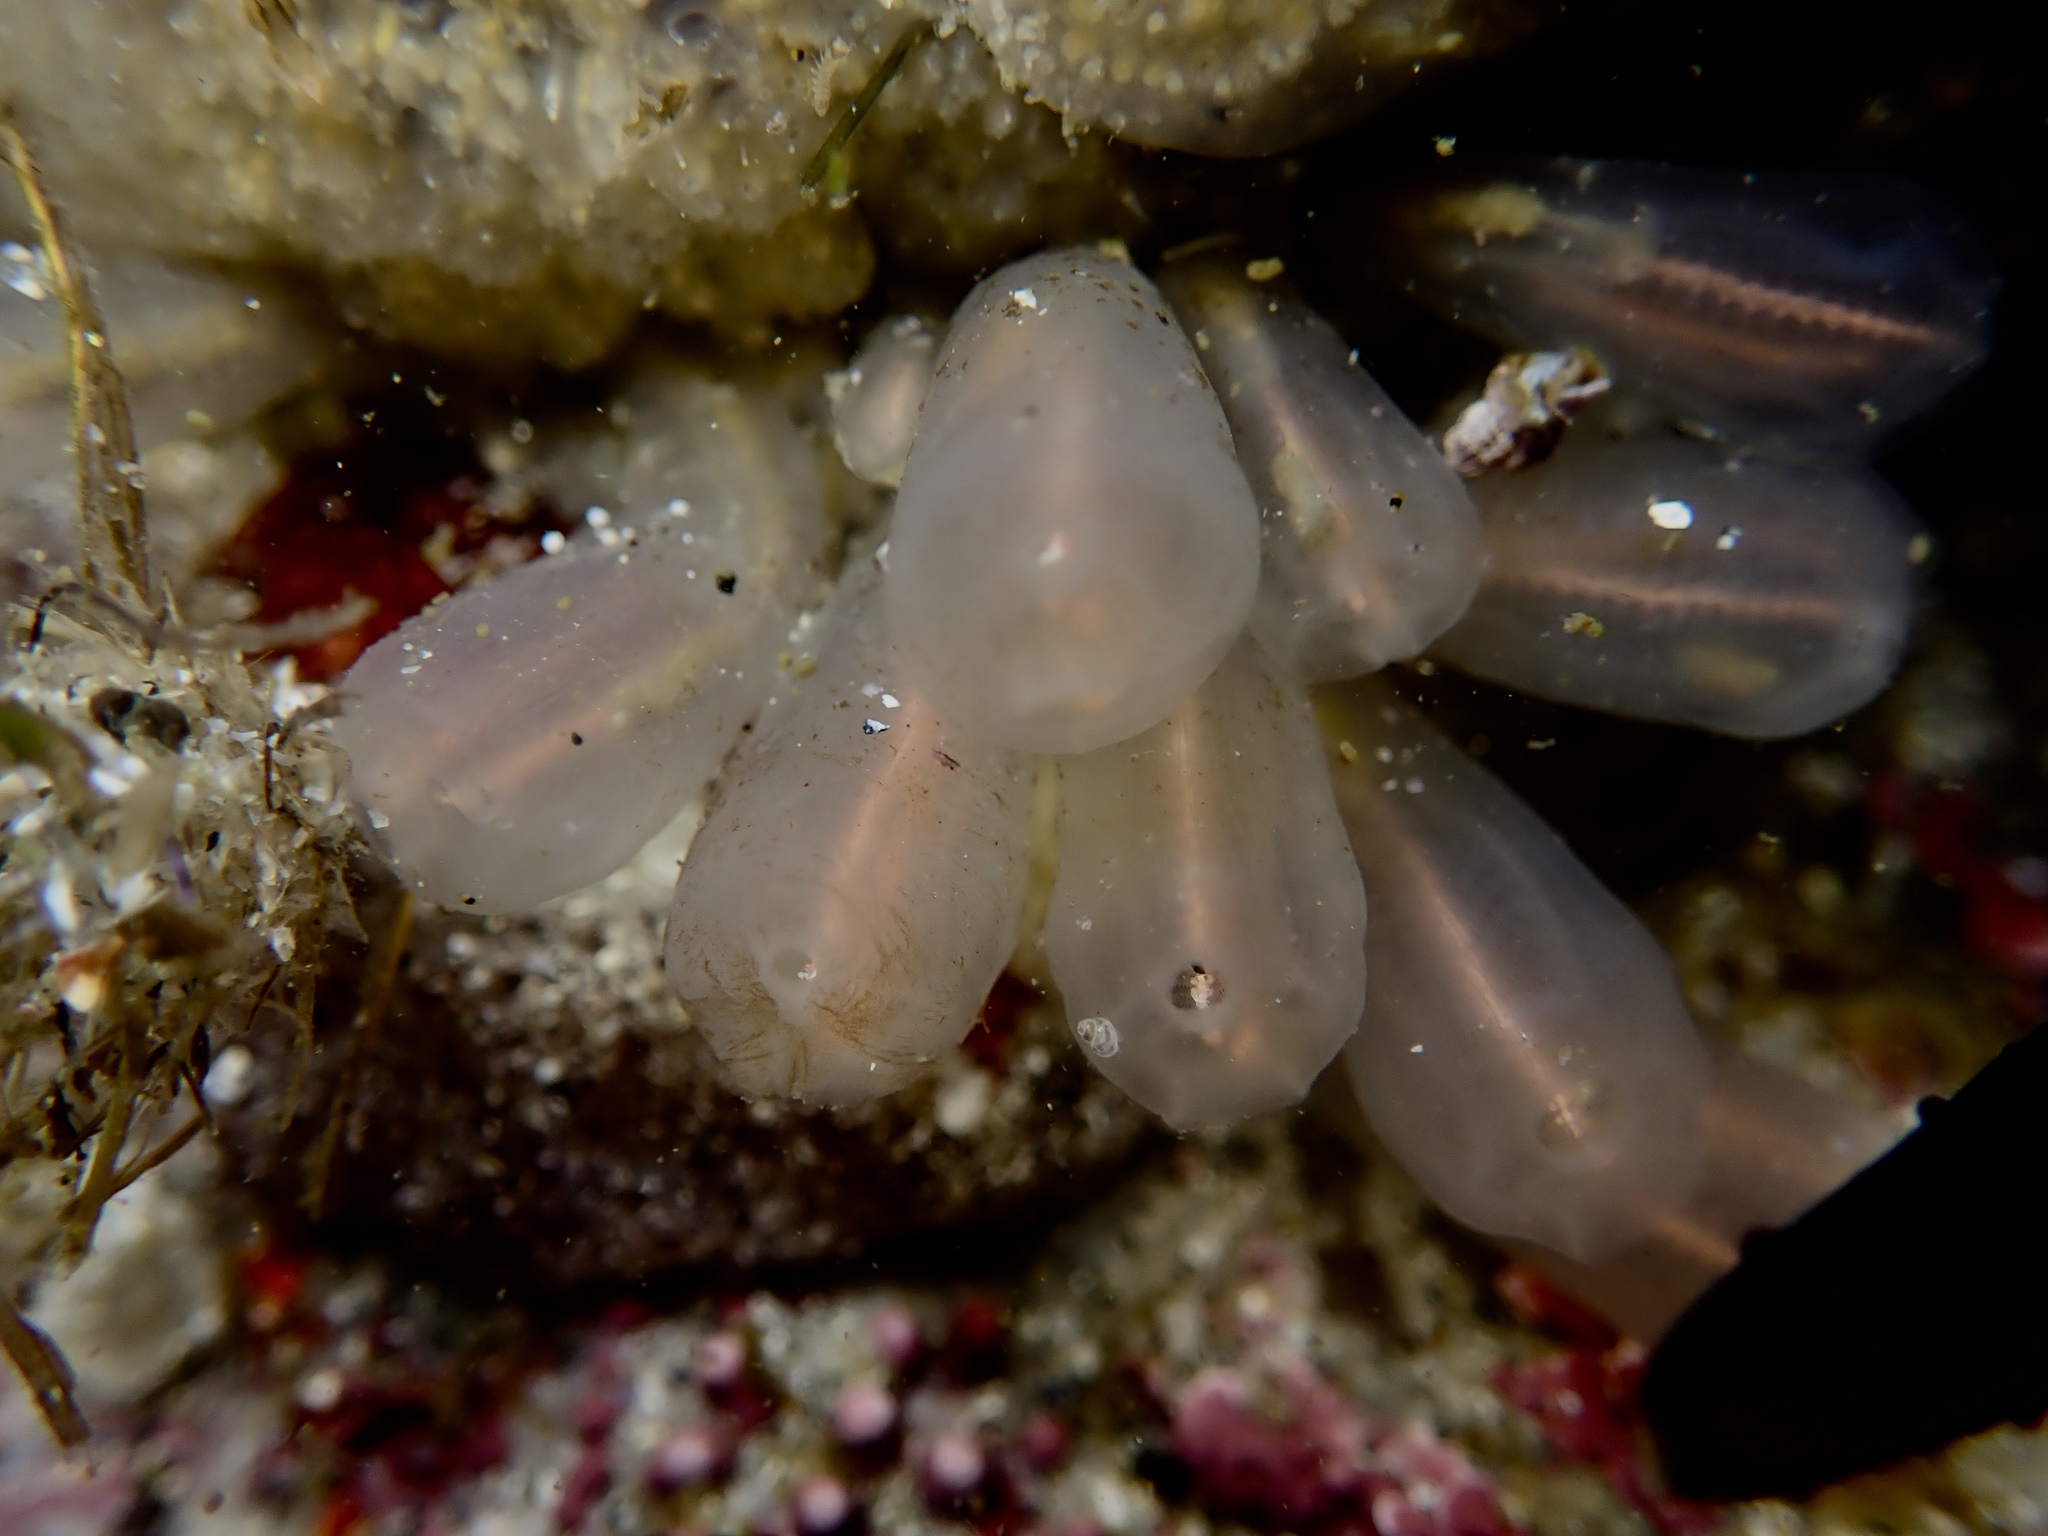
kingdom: Animalia
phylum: Chordata
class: Ascidiacea
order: Aplousobranchia
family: Clavelinidae
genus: Clavelina
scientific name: Clavelina huntsmani
